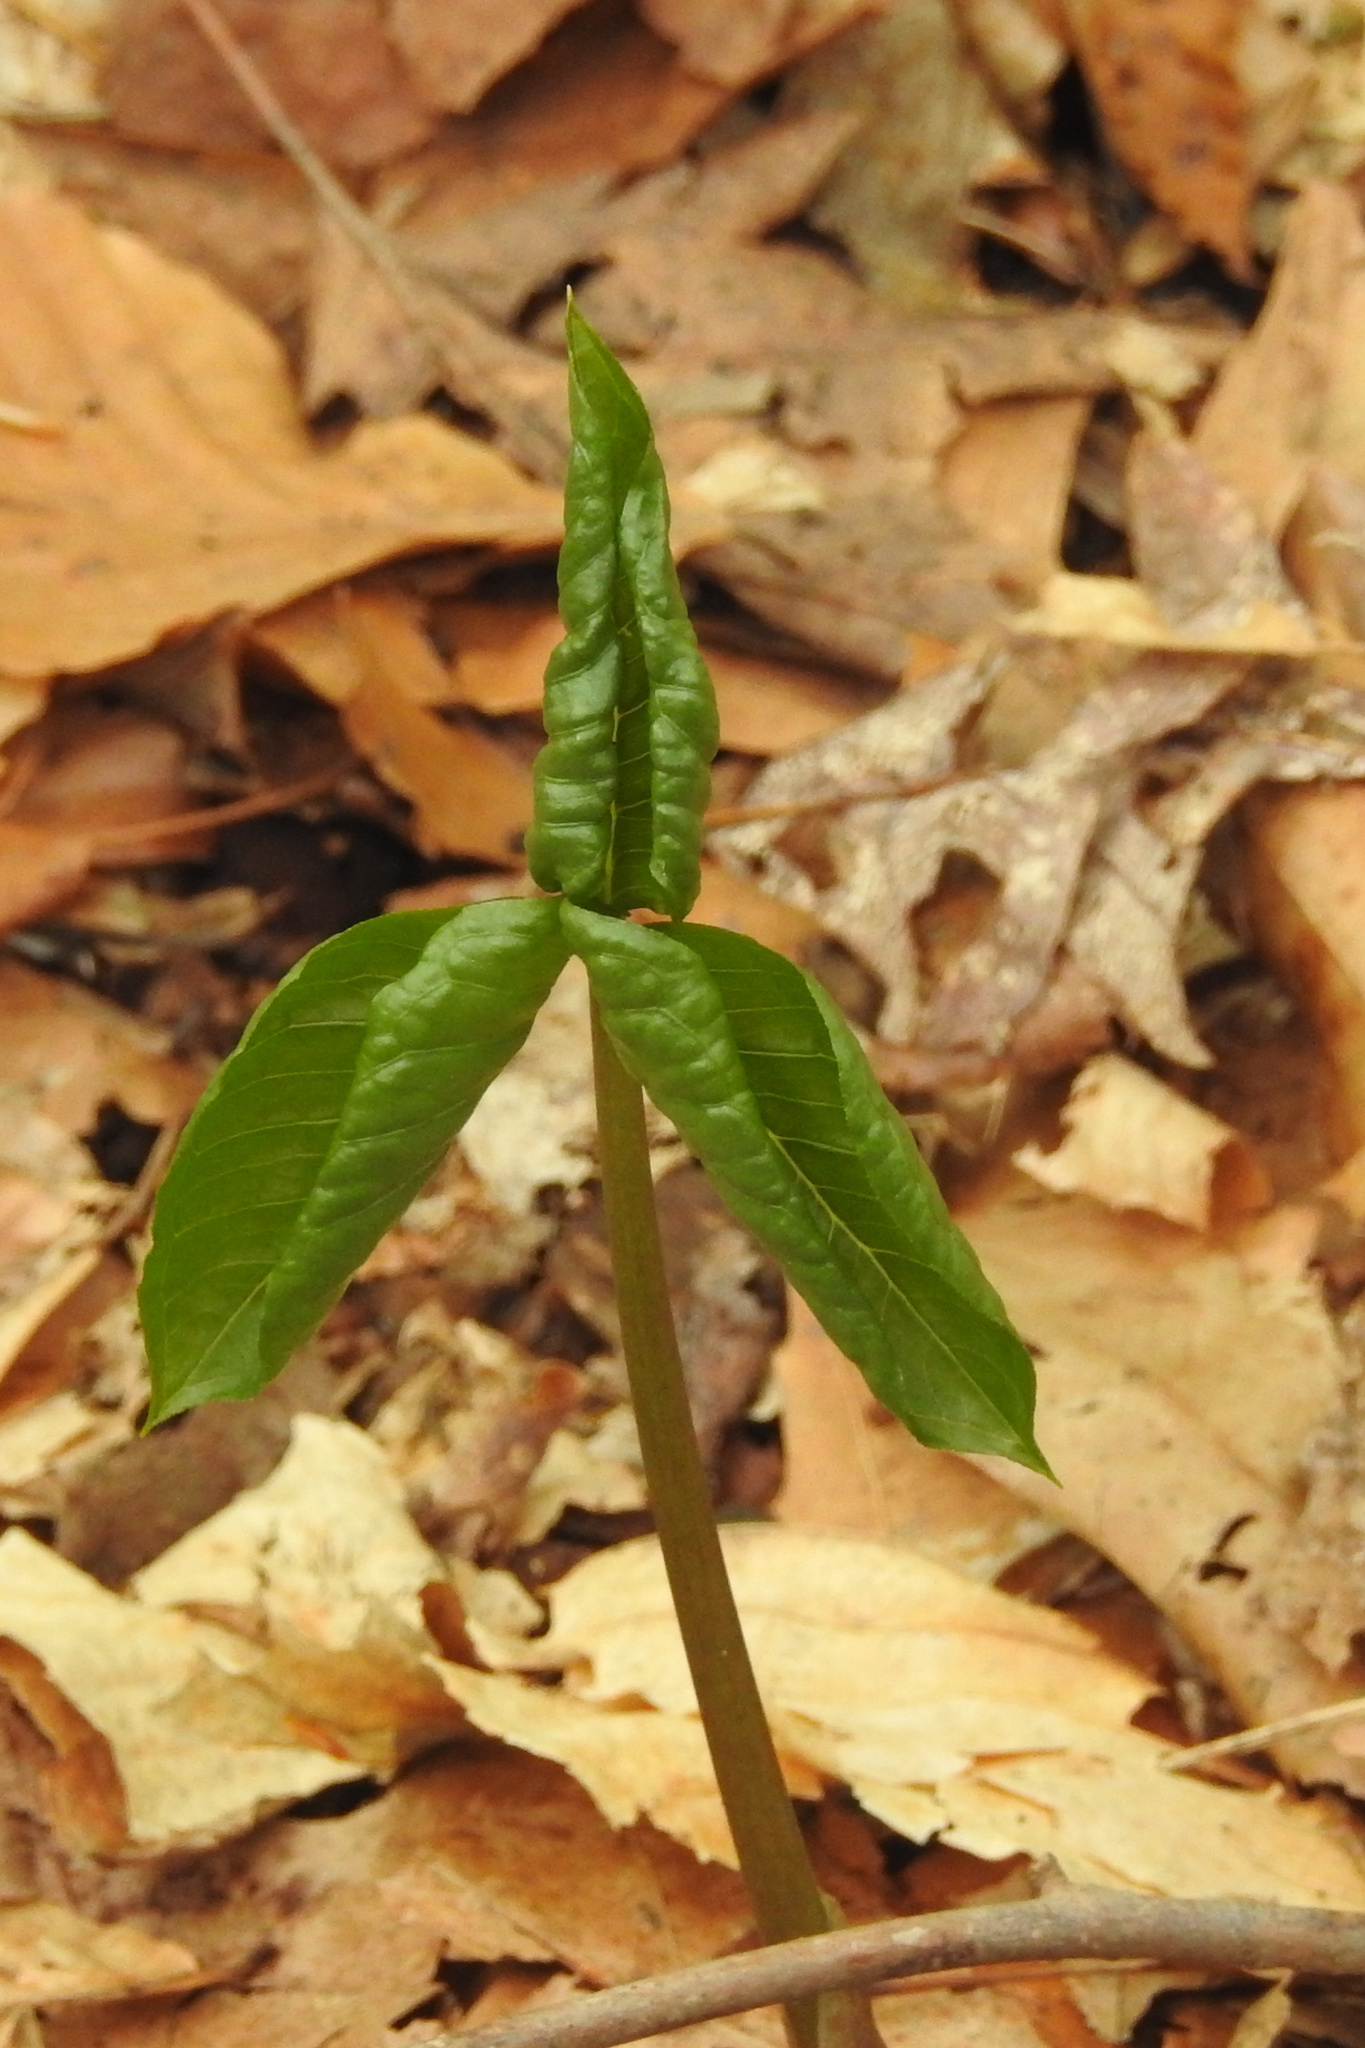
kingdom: Plantae
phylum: Tracheophyta
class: Liliopsida
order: Alismatales
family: Araceae
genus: Arisaema
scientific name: Arisaema triphyllum
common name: Jack-in-the-pulpit
